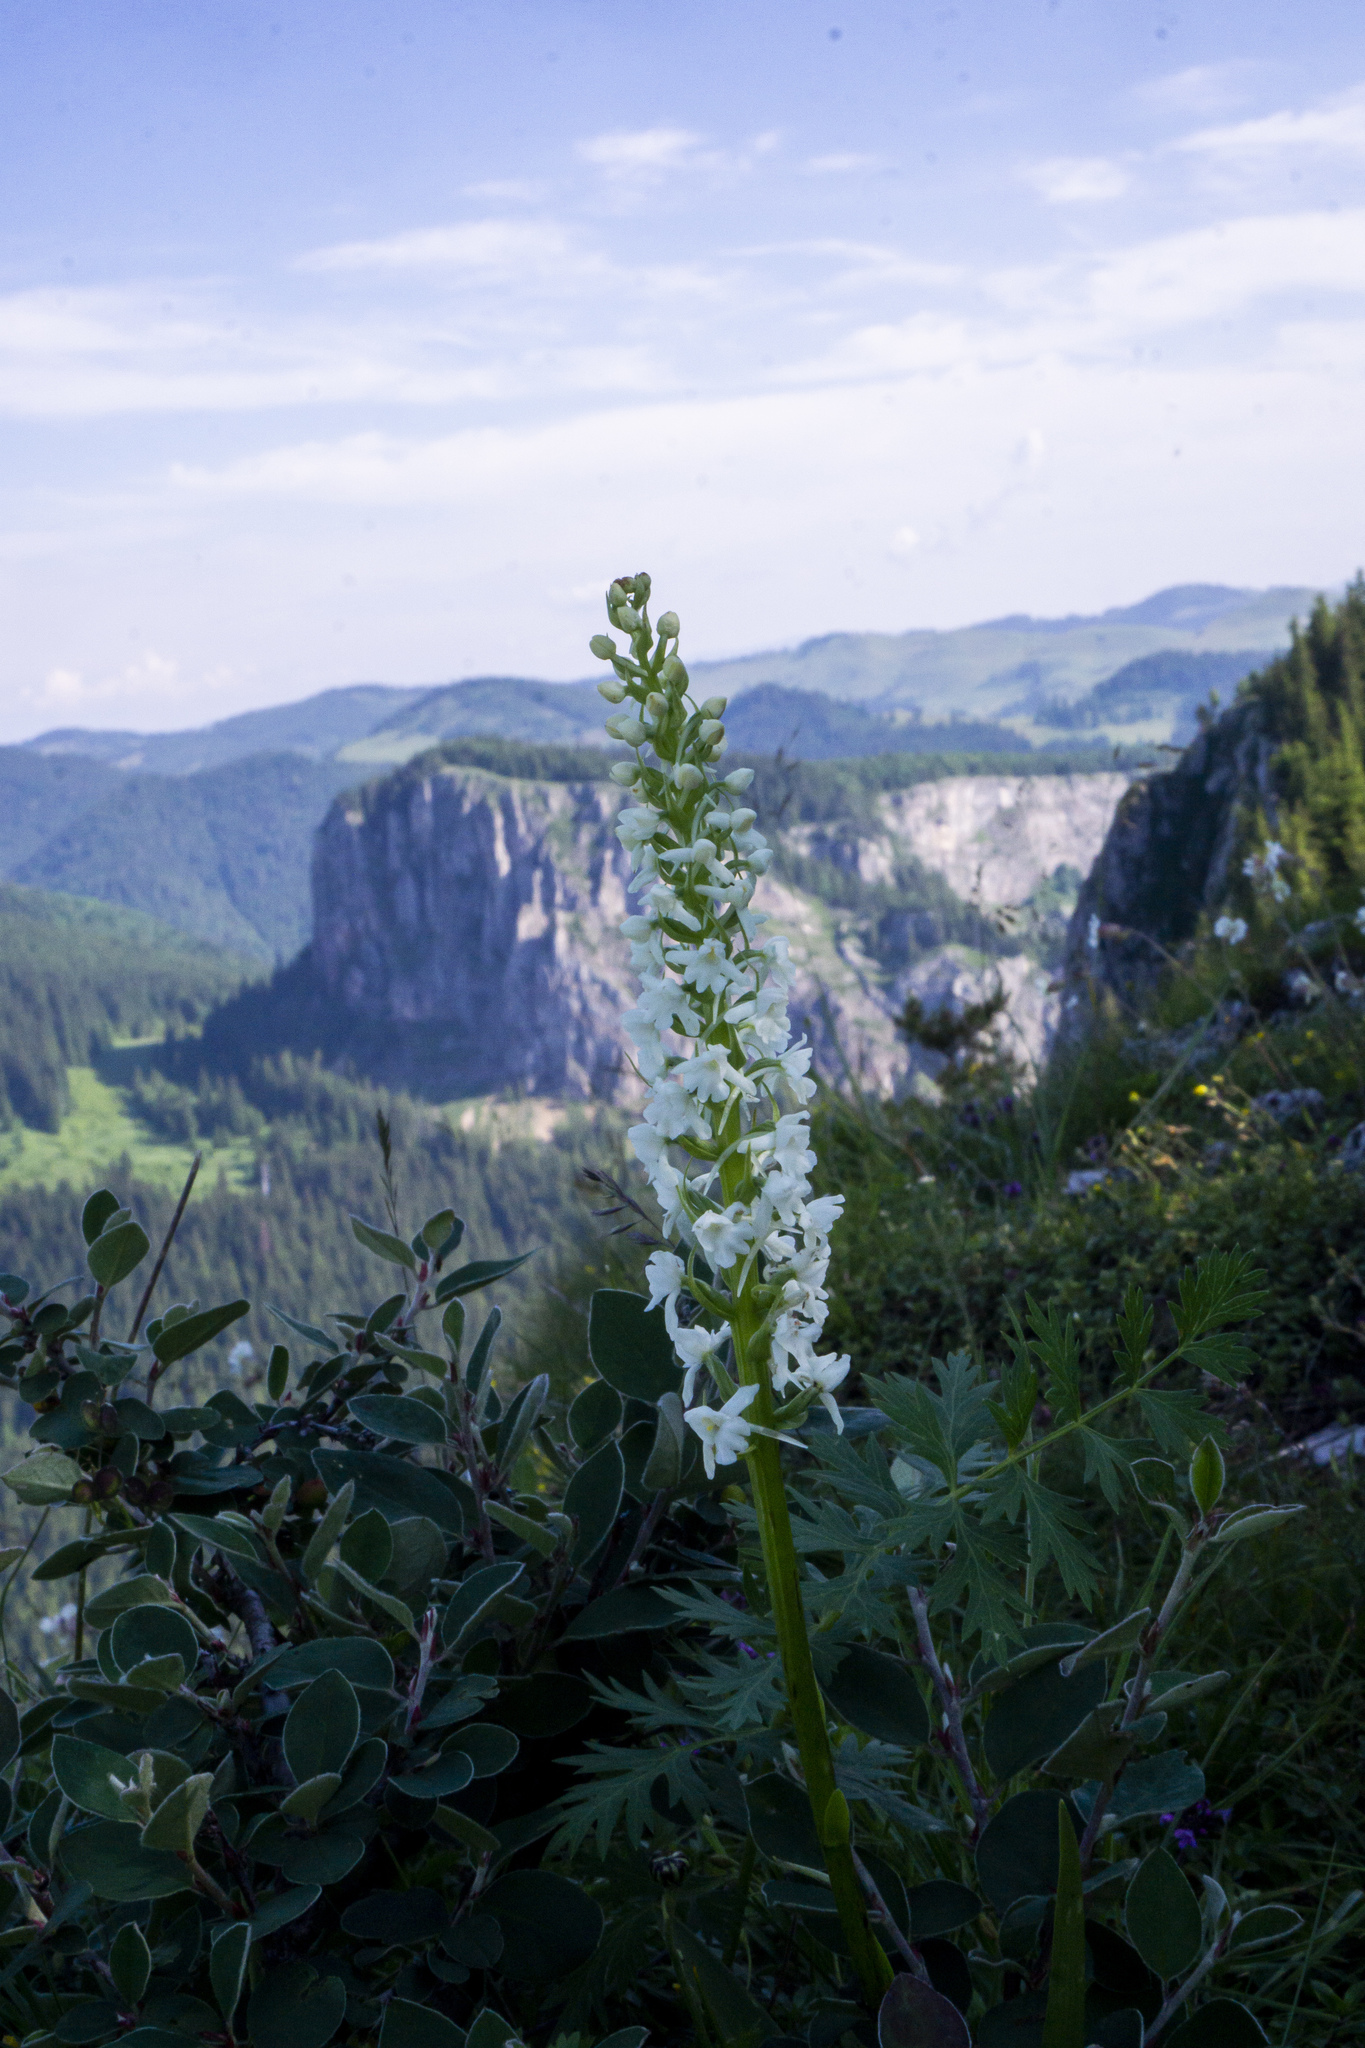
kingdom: Plantae
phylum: Tracheophyta
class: Liliopsida
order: Asparagales
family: Orchidaceae
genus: Gymnadenia
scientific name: Gymnadenia conopsea
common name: Fragrant orchid
